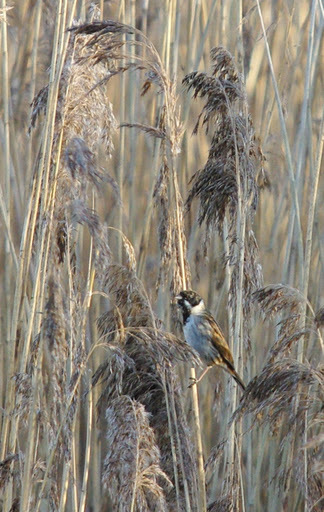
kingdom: Animalia
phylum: Chordata
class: Aves
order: Passeriformes
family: Emberizidae
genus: Emberiza
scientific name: Emberiza schoeniclus
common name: Reed bunting
